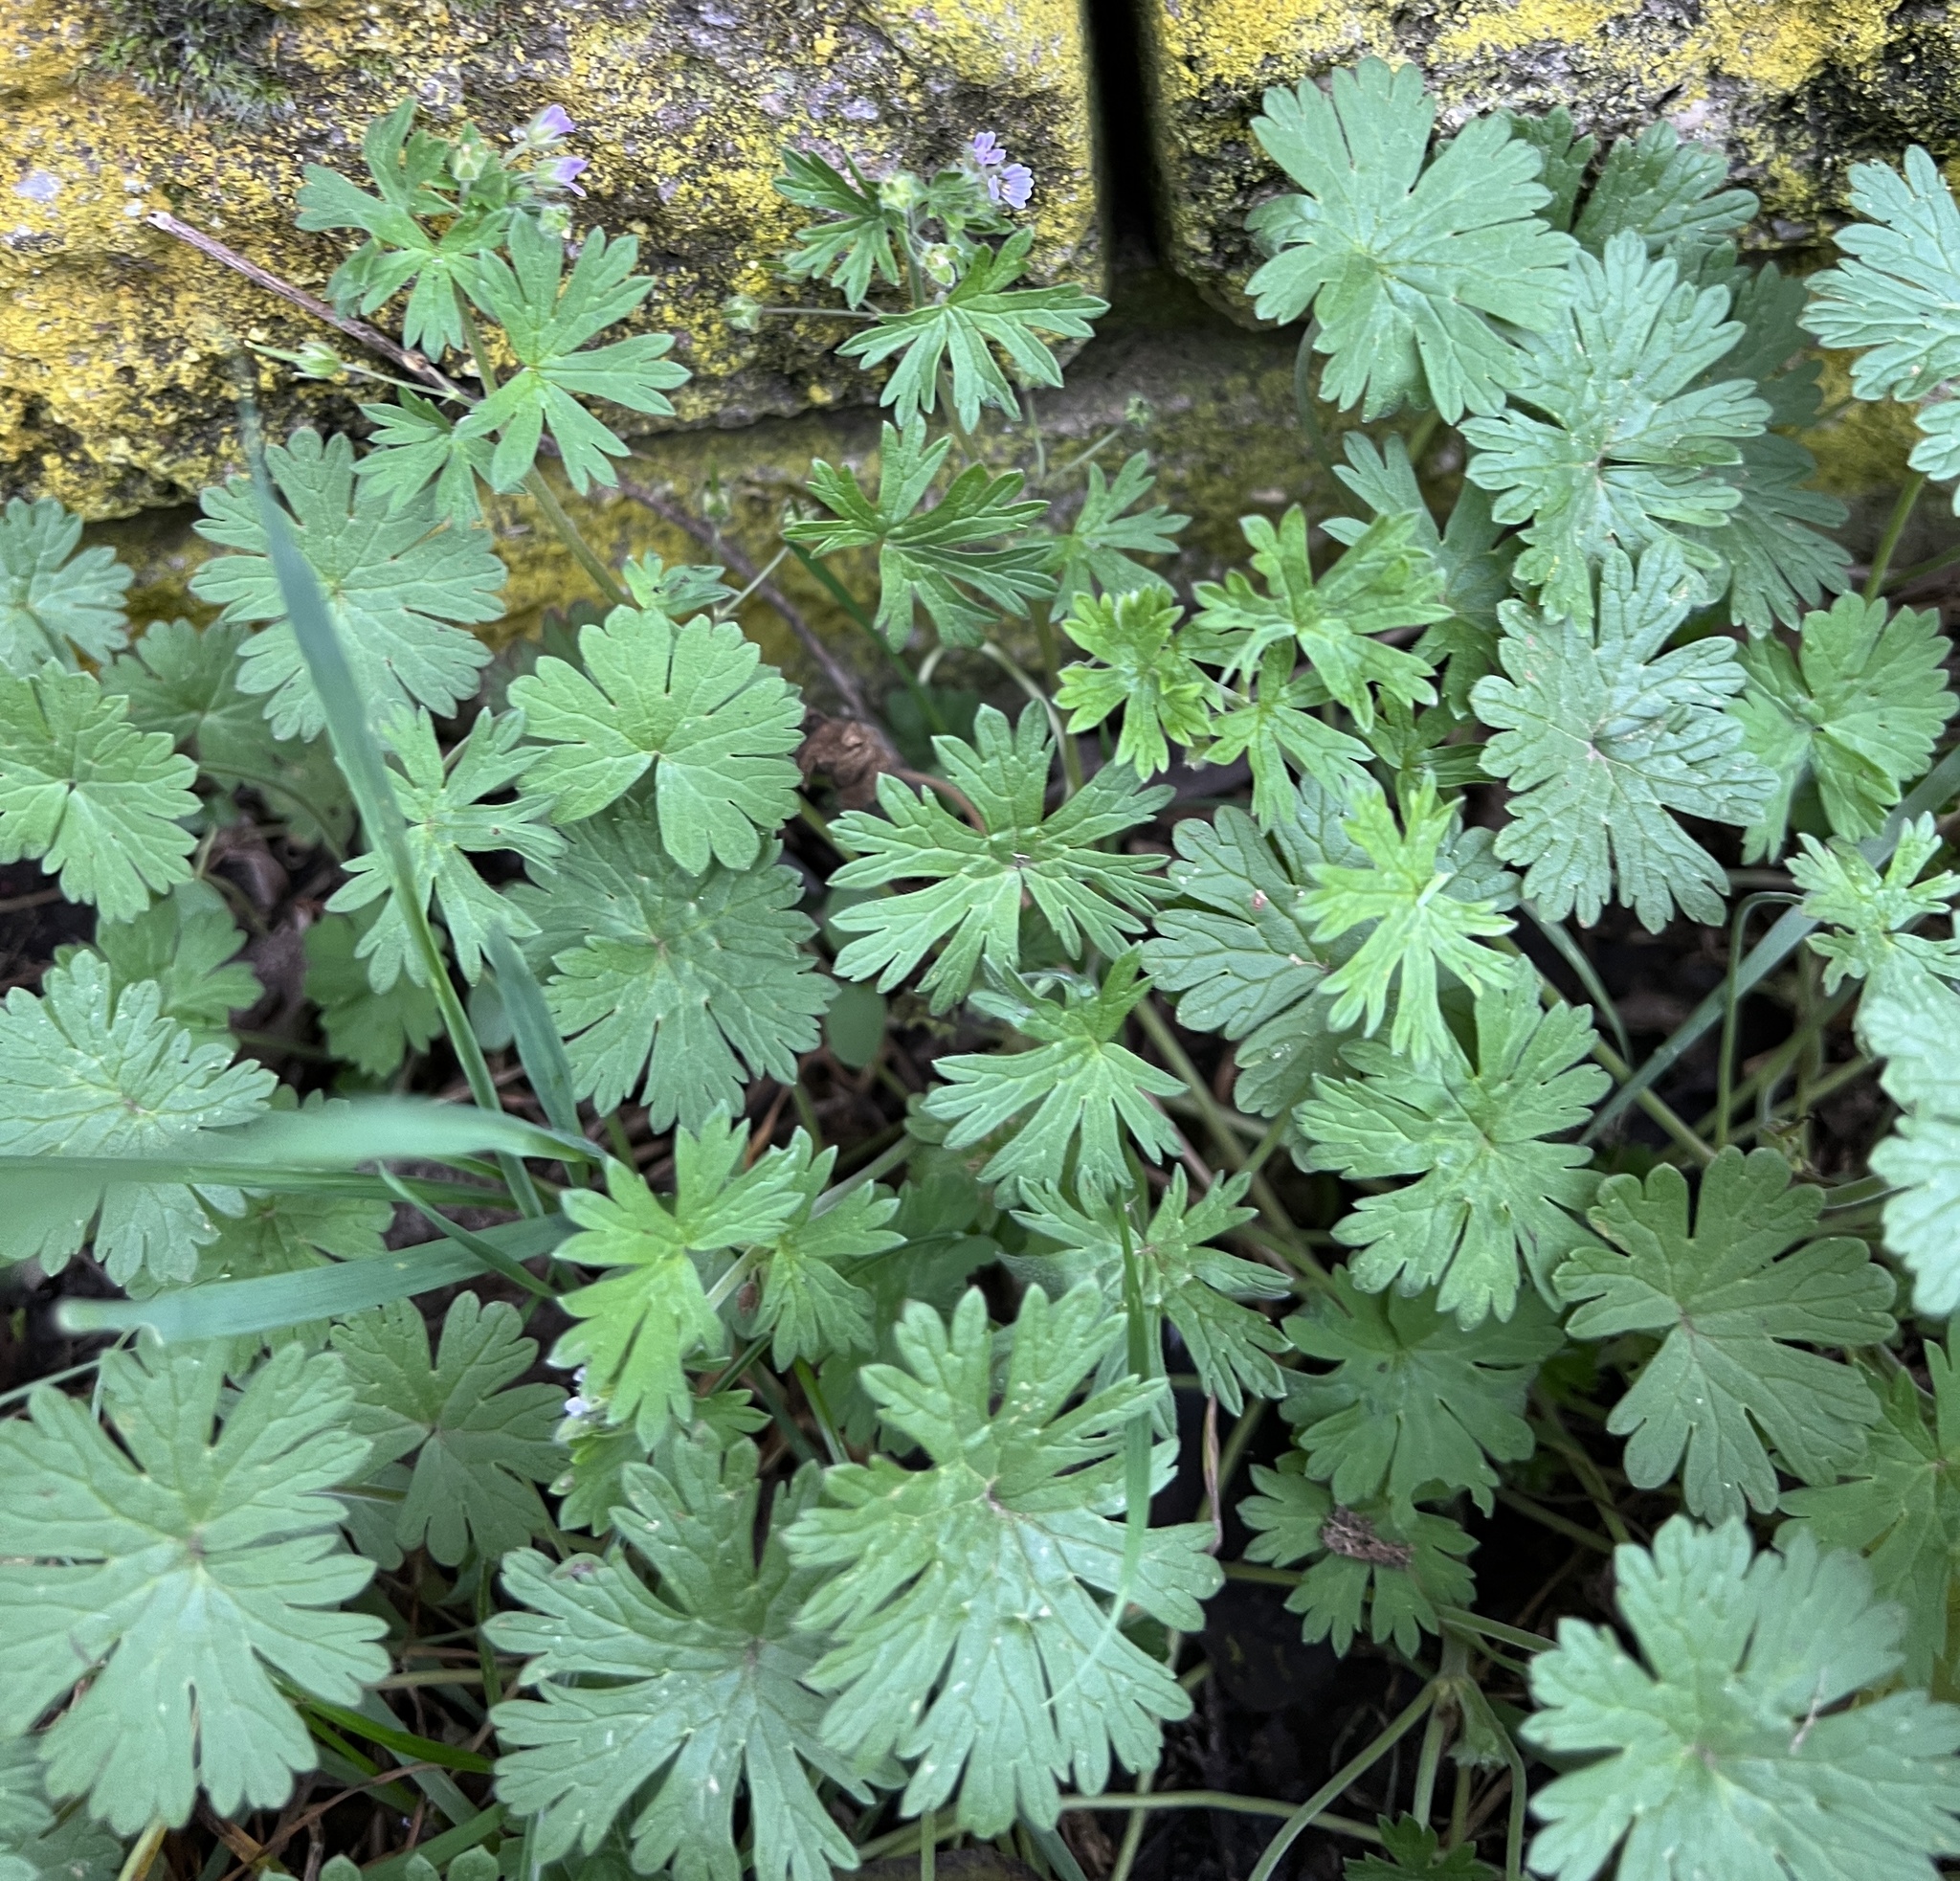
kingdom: Plantae
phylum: Tracheophyta
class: Magnoliopsida
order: Geraniales
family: Geraniaceae
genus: Geranium
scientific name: Geranium pusillum
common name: Small geranium
